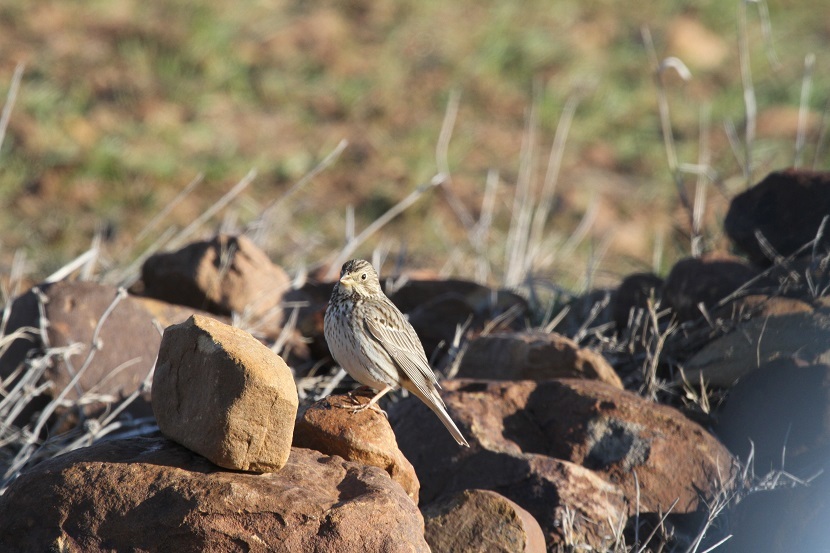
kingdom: Animalia
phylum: Chordata
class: Aves
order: Passeriformes
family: Emberizidae
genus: Emberiza
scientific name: Emberiza calandra
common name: Corn bunting
